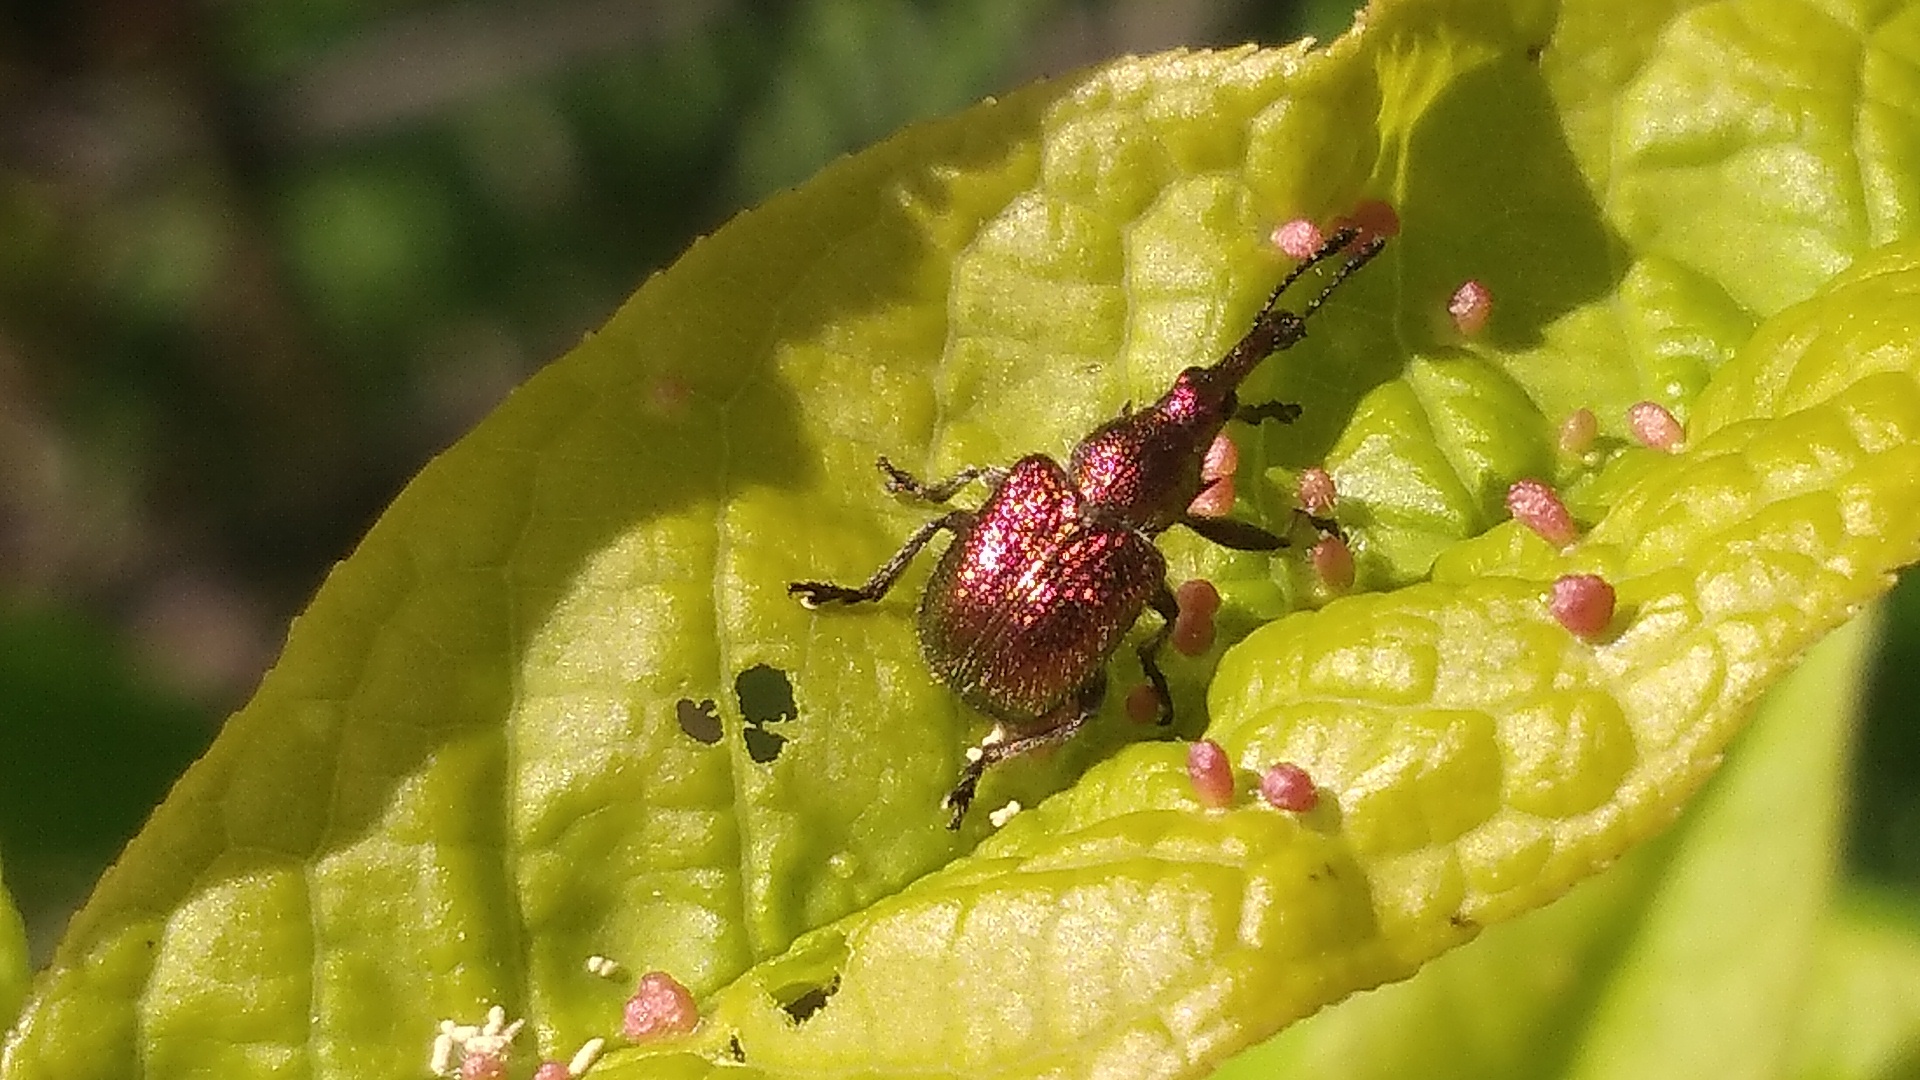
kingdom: Animalia
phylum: Arthropoda
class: Insecta
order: Coleoptera
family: Attelabidae
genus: Rhynchites
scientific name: Rhynchites auratus
